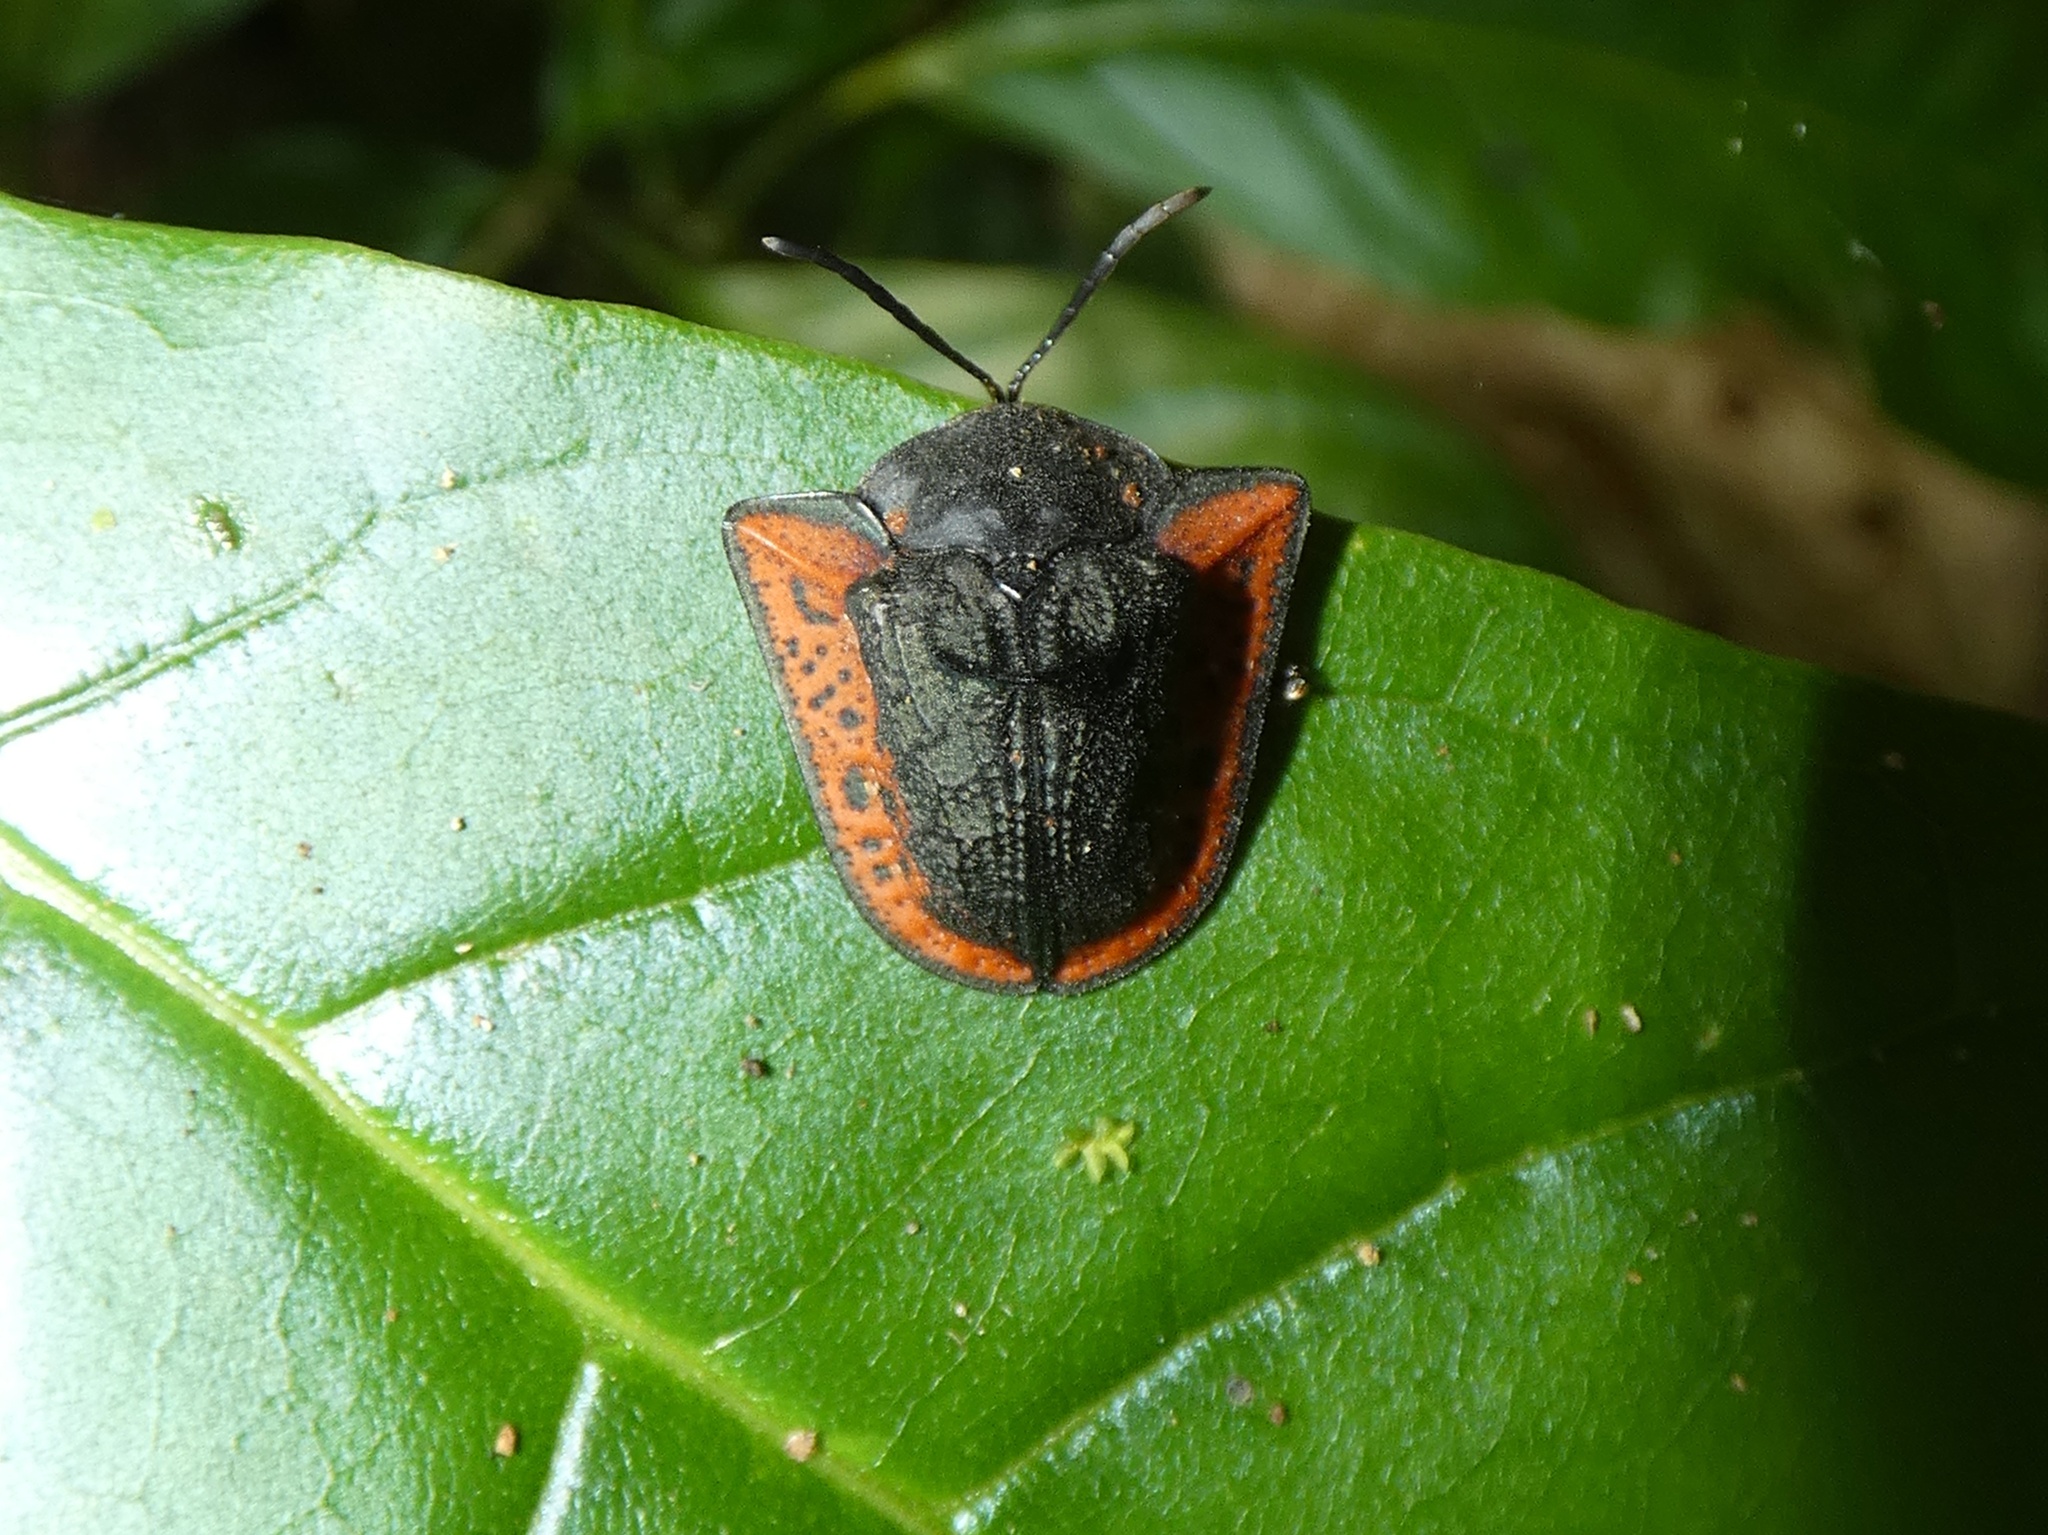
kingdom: Animalia
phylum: Arthropoda
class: Insecta
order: Coleoptera
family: Chrysomelidae
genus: Dorynota
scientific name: Dorynota godmani
